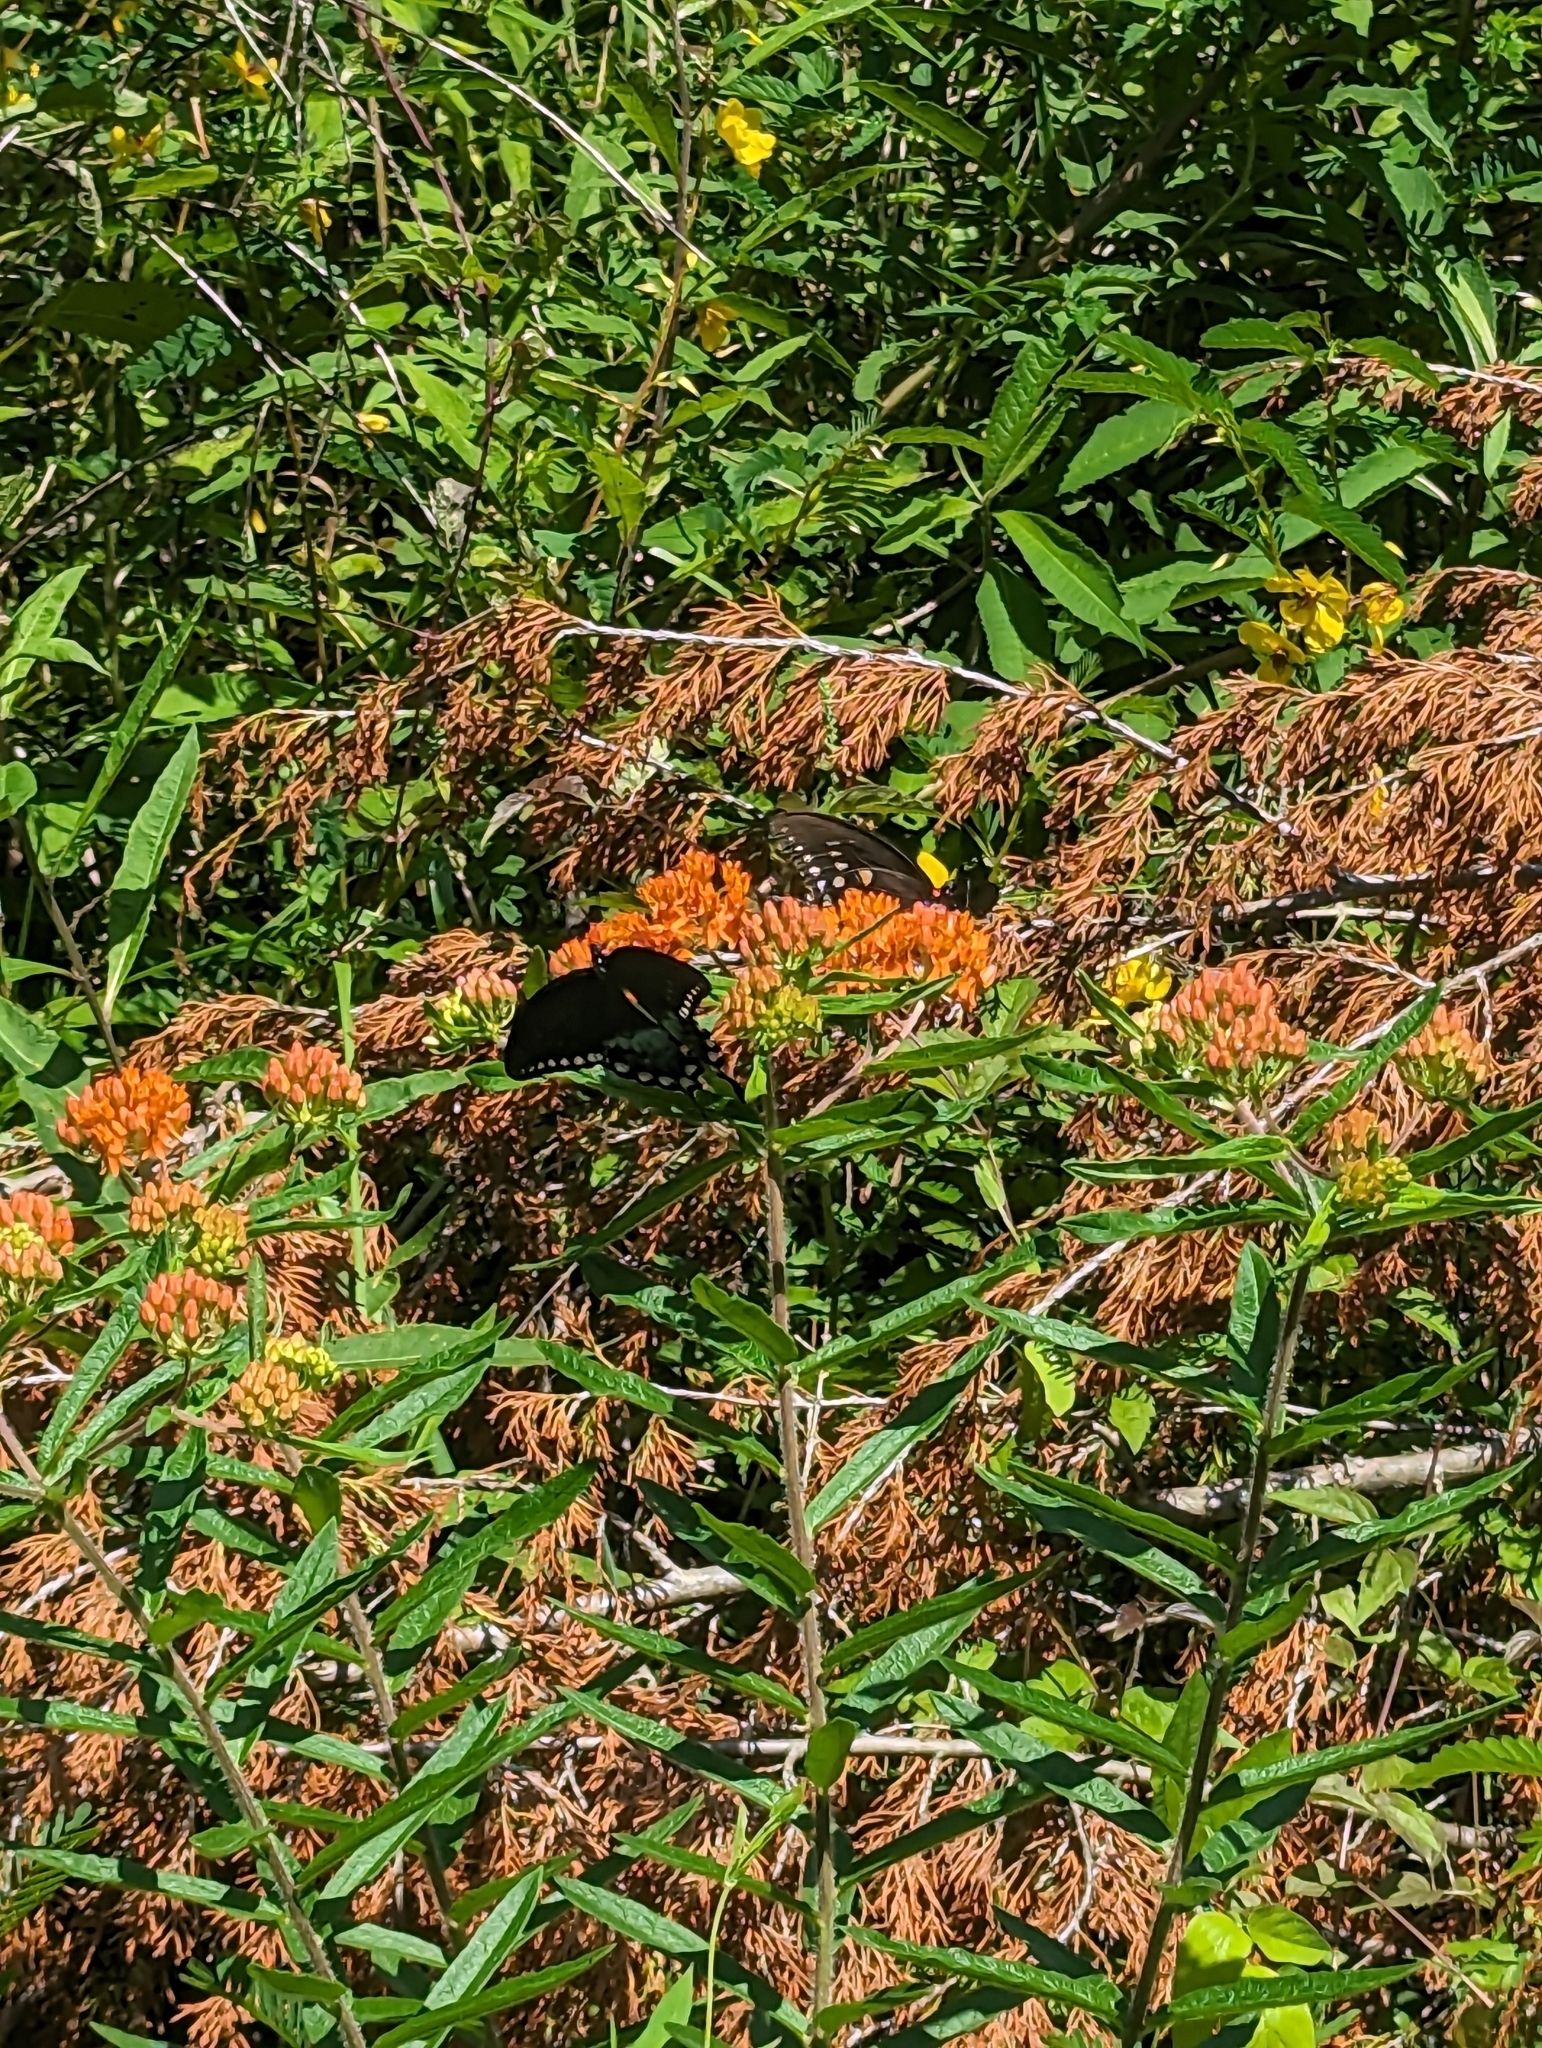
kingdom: Plantae
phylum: Tracheophyta
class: Magnoliopsida
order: Gentianales
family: Apocynaceae
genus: Asclepias
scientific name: Asclepias tuberosa
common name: Butterfly milkweed
